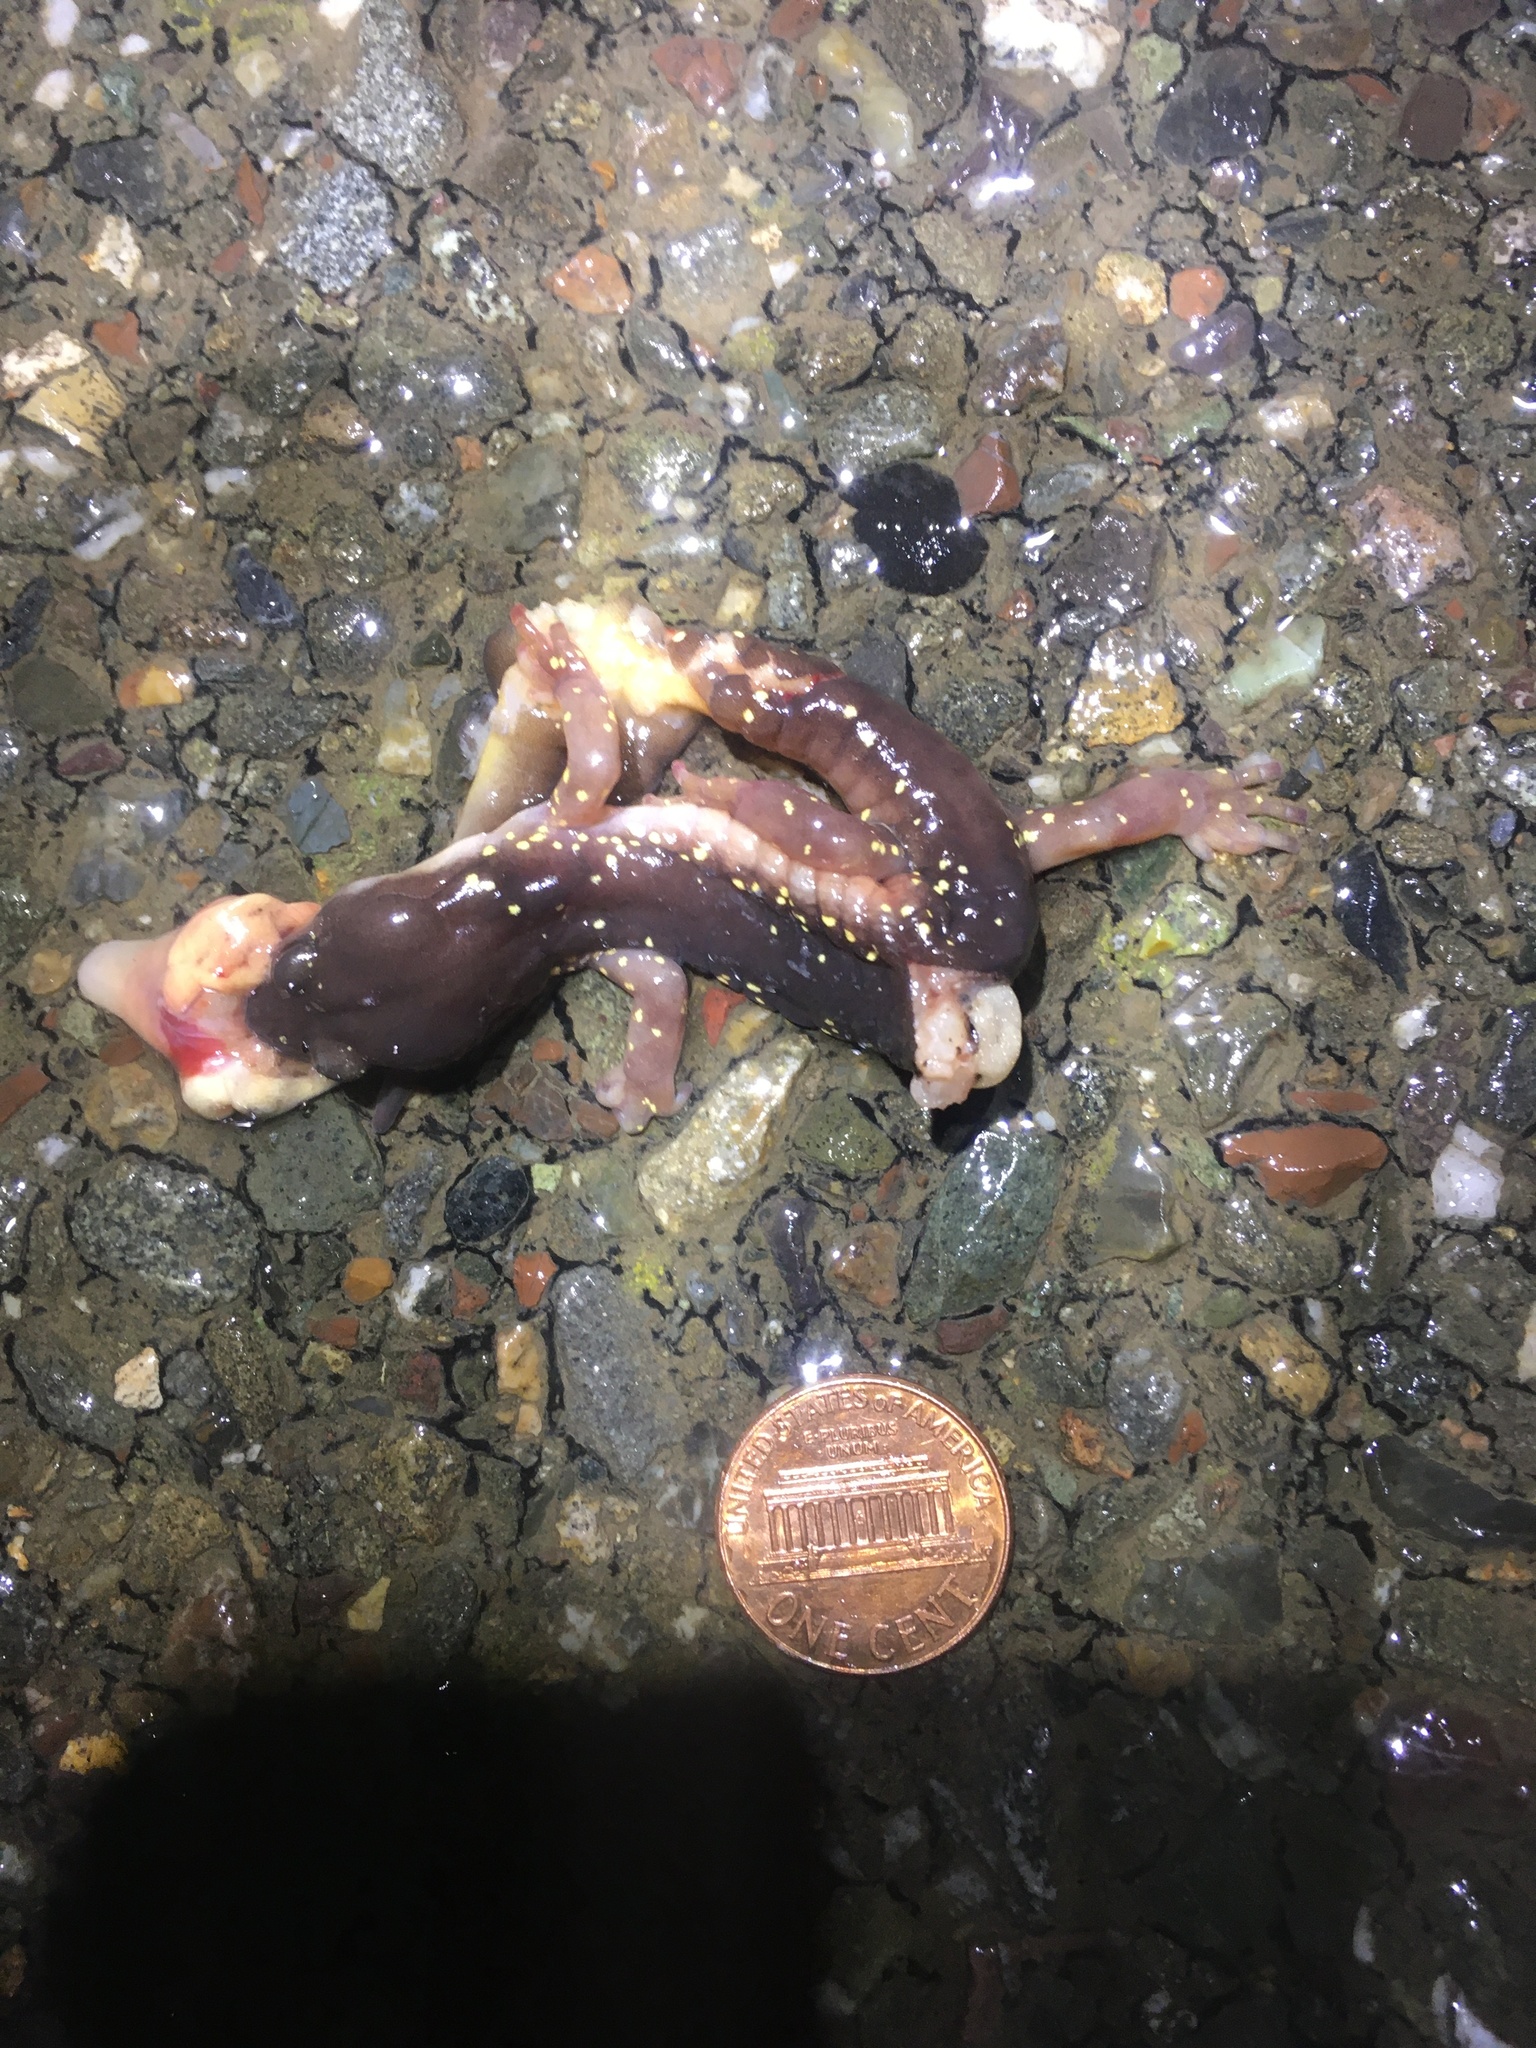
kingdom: Animalia
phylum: Chordata
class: Amphibia
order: Caudata
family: Plethodontidae
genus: Aneides
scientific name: Aneides lugubris
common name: Arboreal salamander
